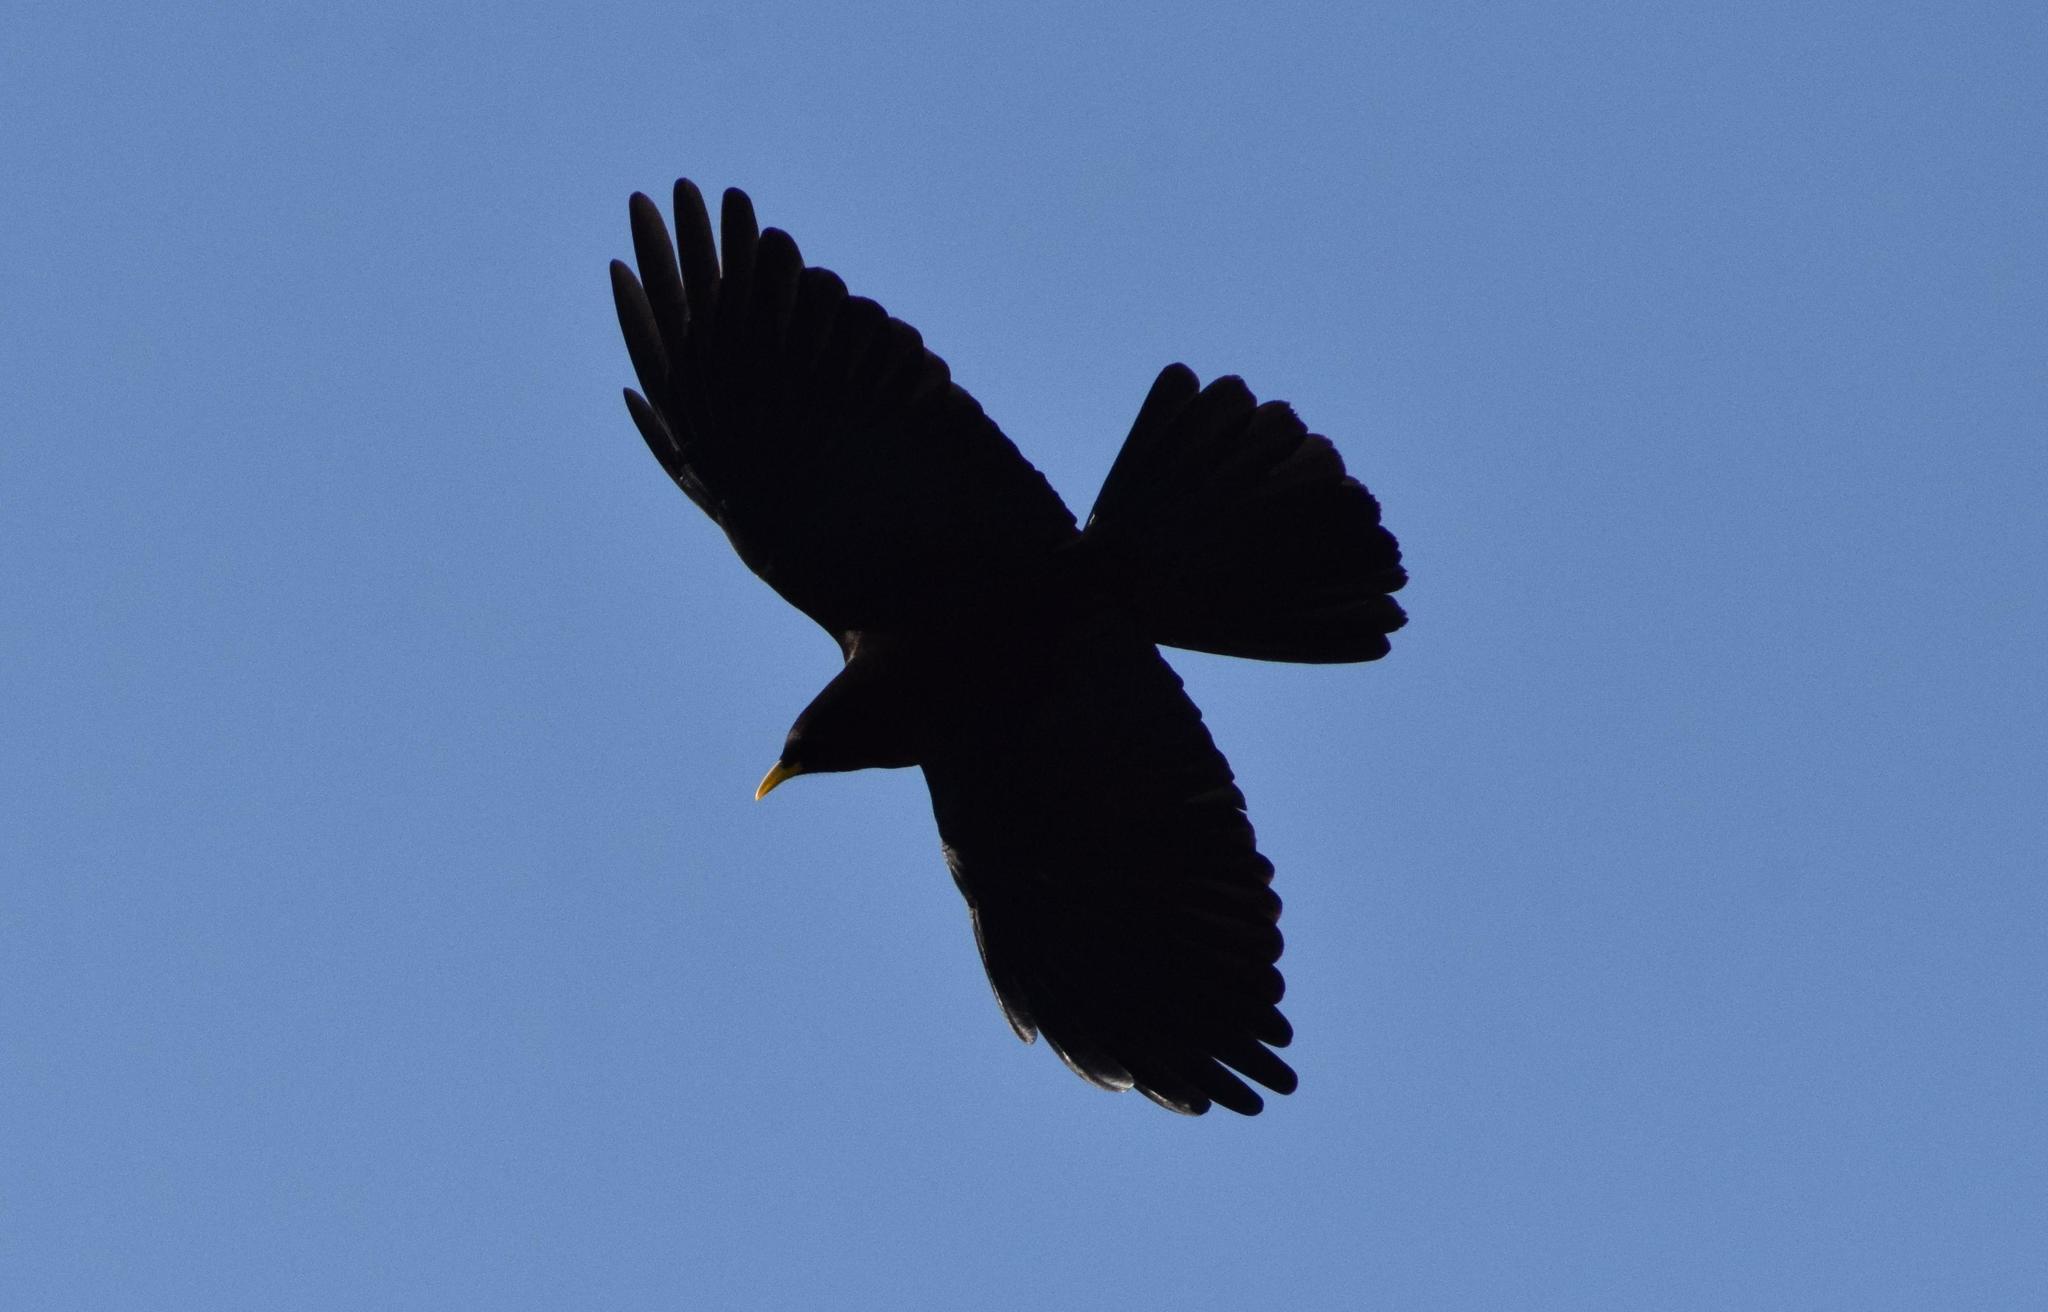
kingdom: Animalia
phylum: Chordata
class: Aves
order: Passeriformes
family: Corvidae
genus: Pyrrhocorax
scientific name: Pyrrhocorax graculus
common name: Alpine chough
